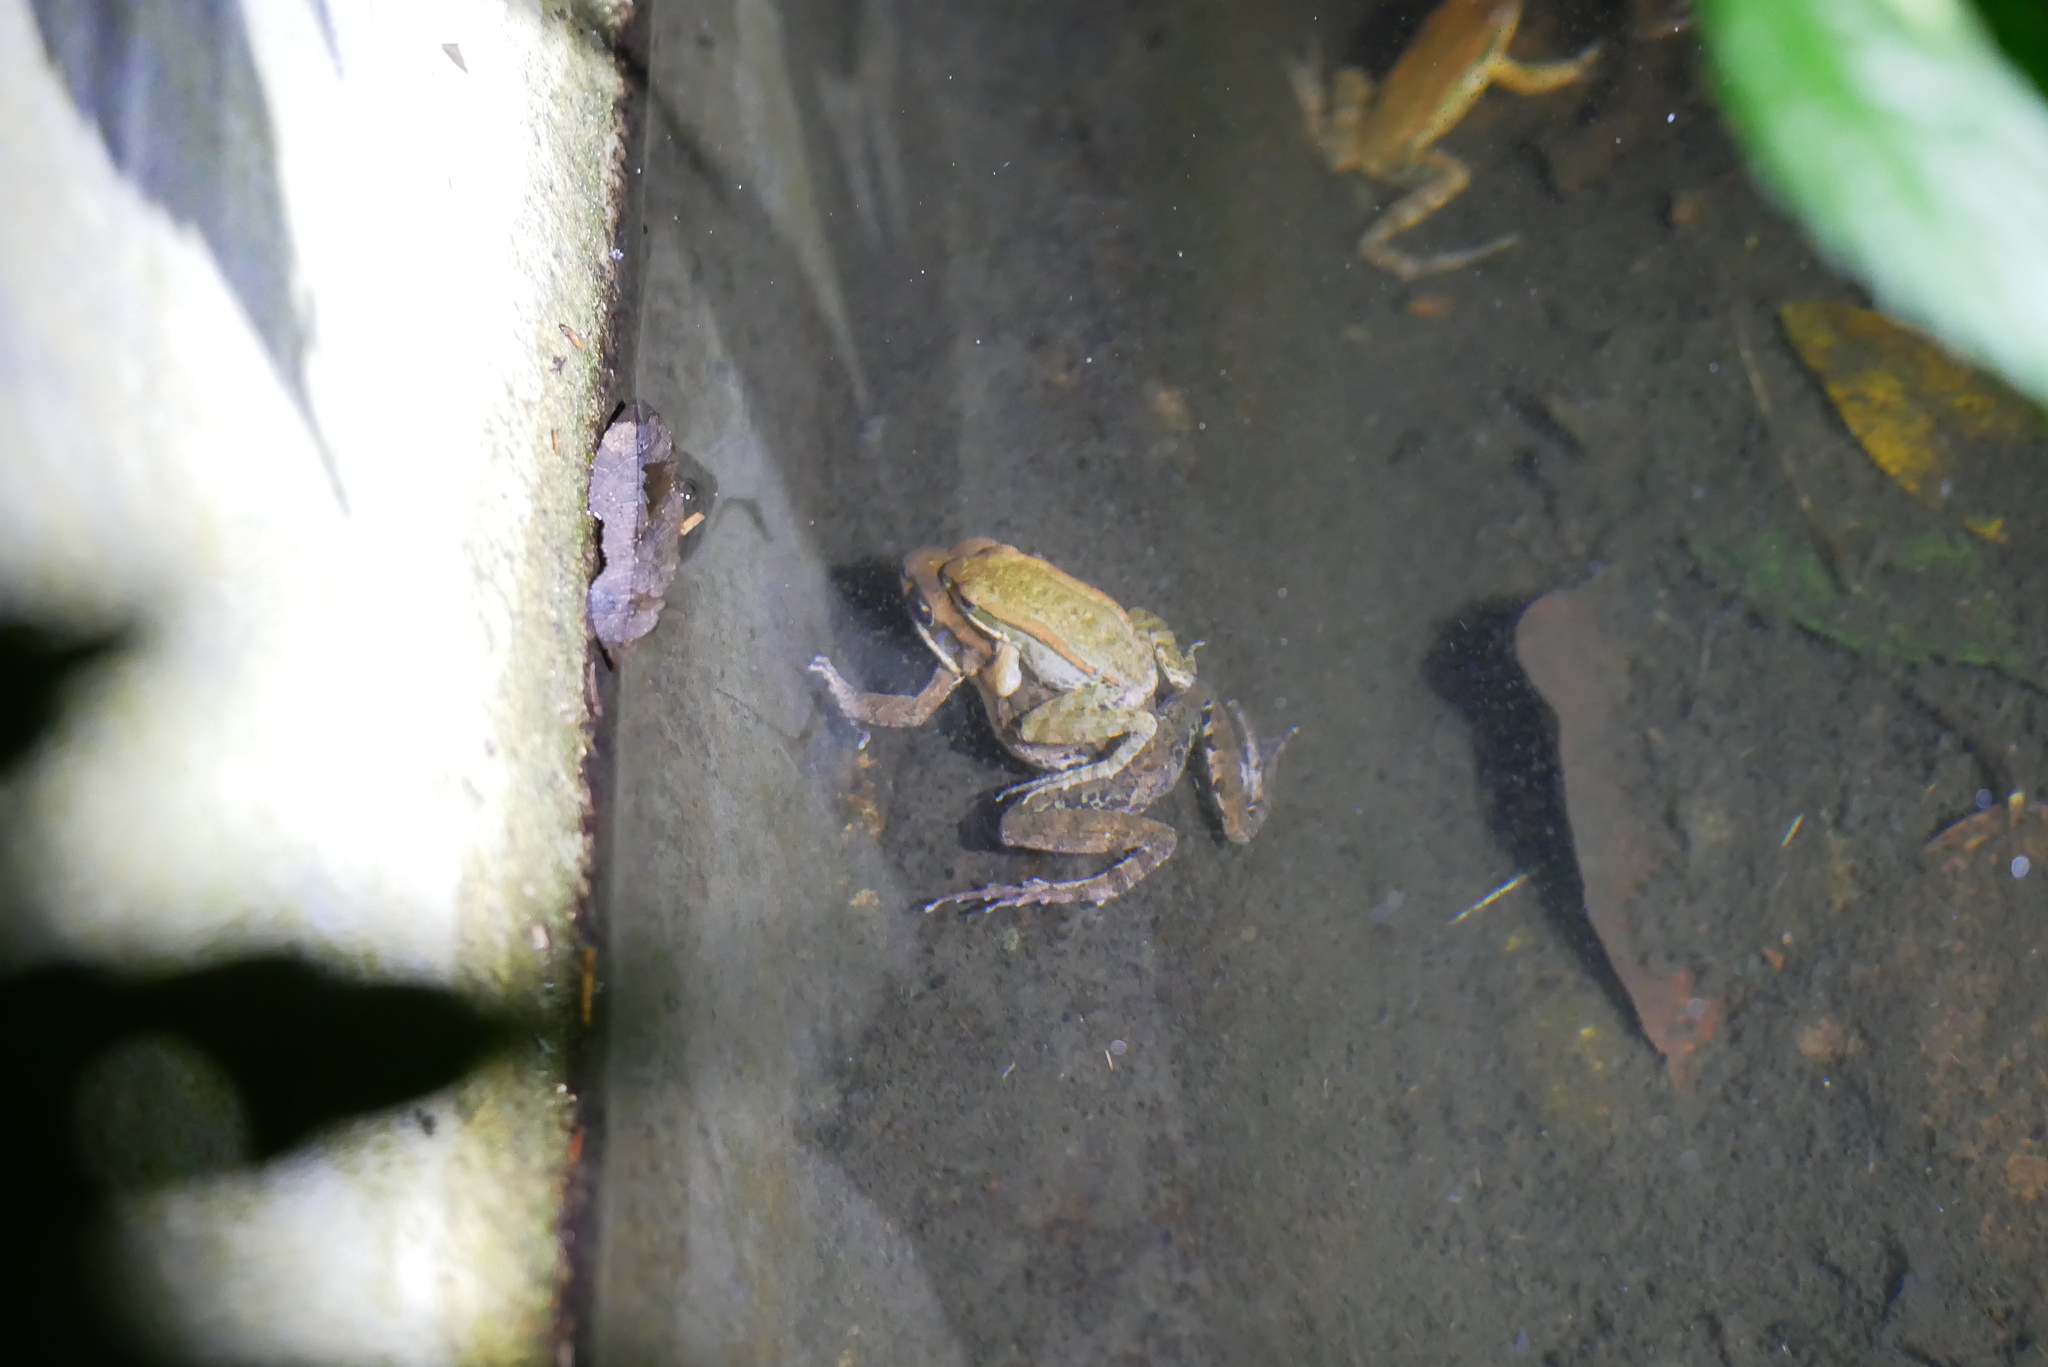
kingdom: Animalia
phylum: Chordata
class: Amphibia
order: Anura
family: Ranidae
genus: Hylarana
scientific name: Hylarana latouchii
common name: Broad-folded frog
